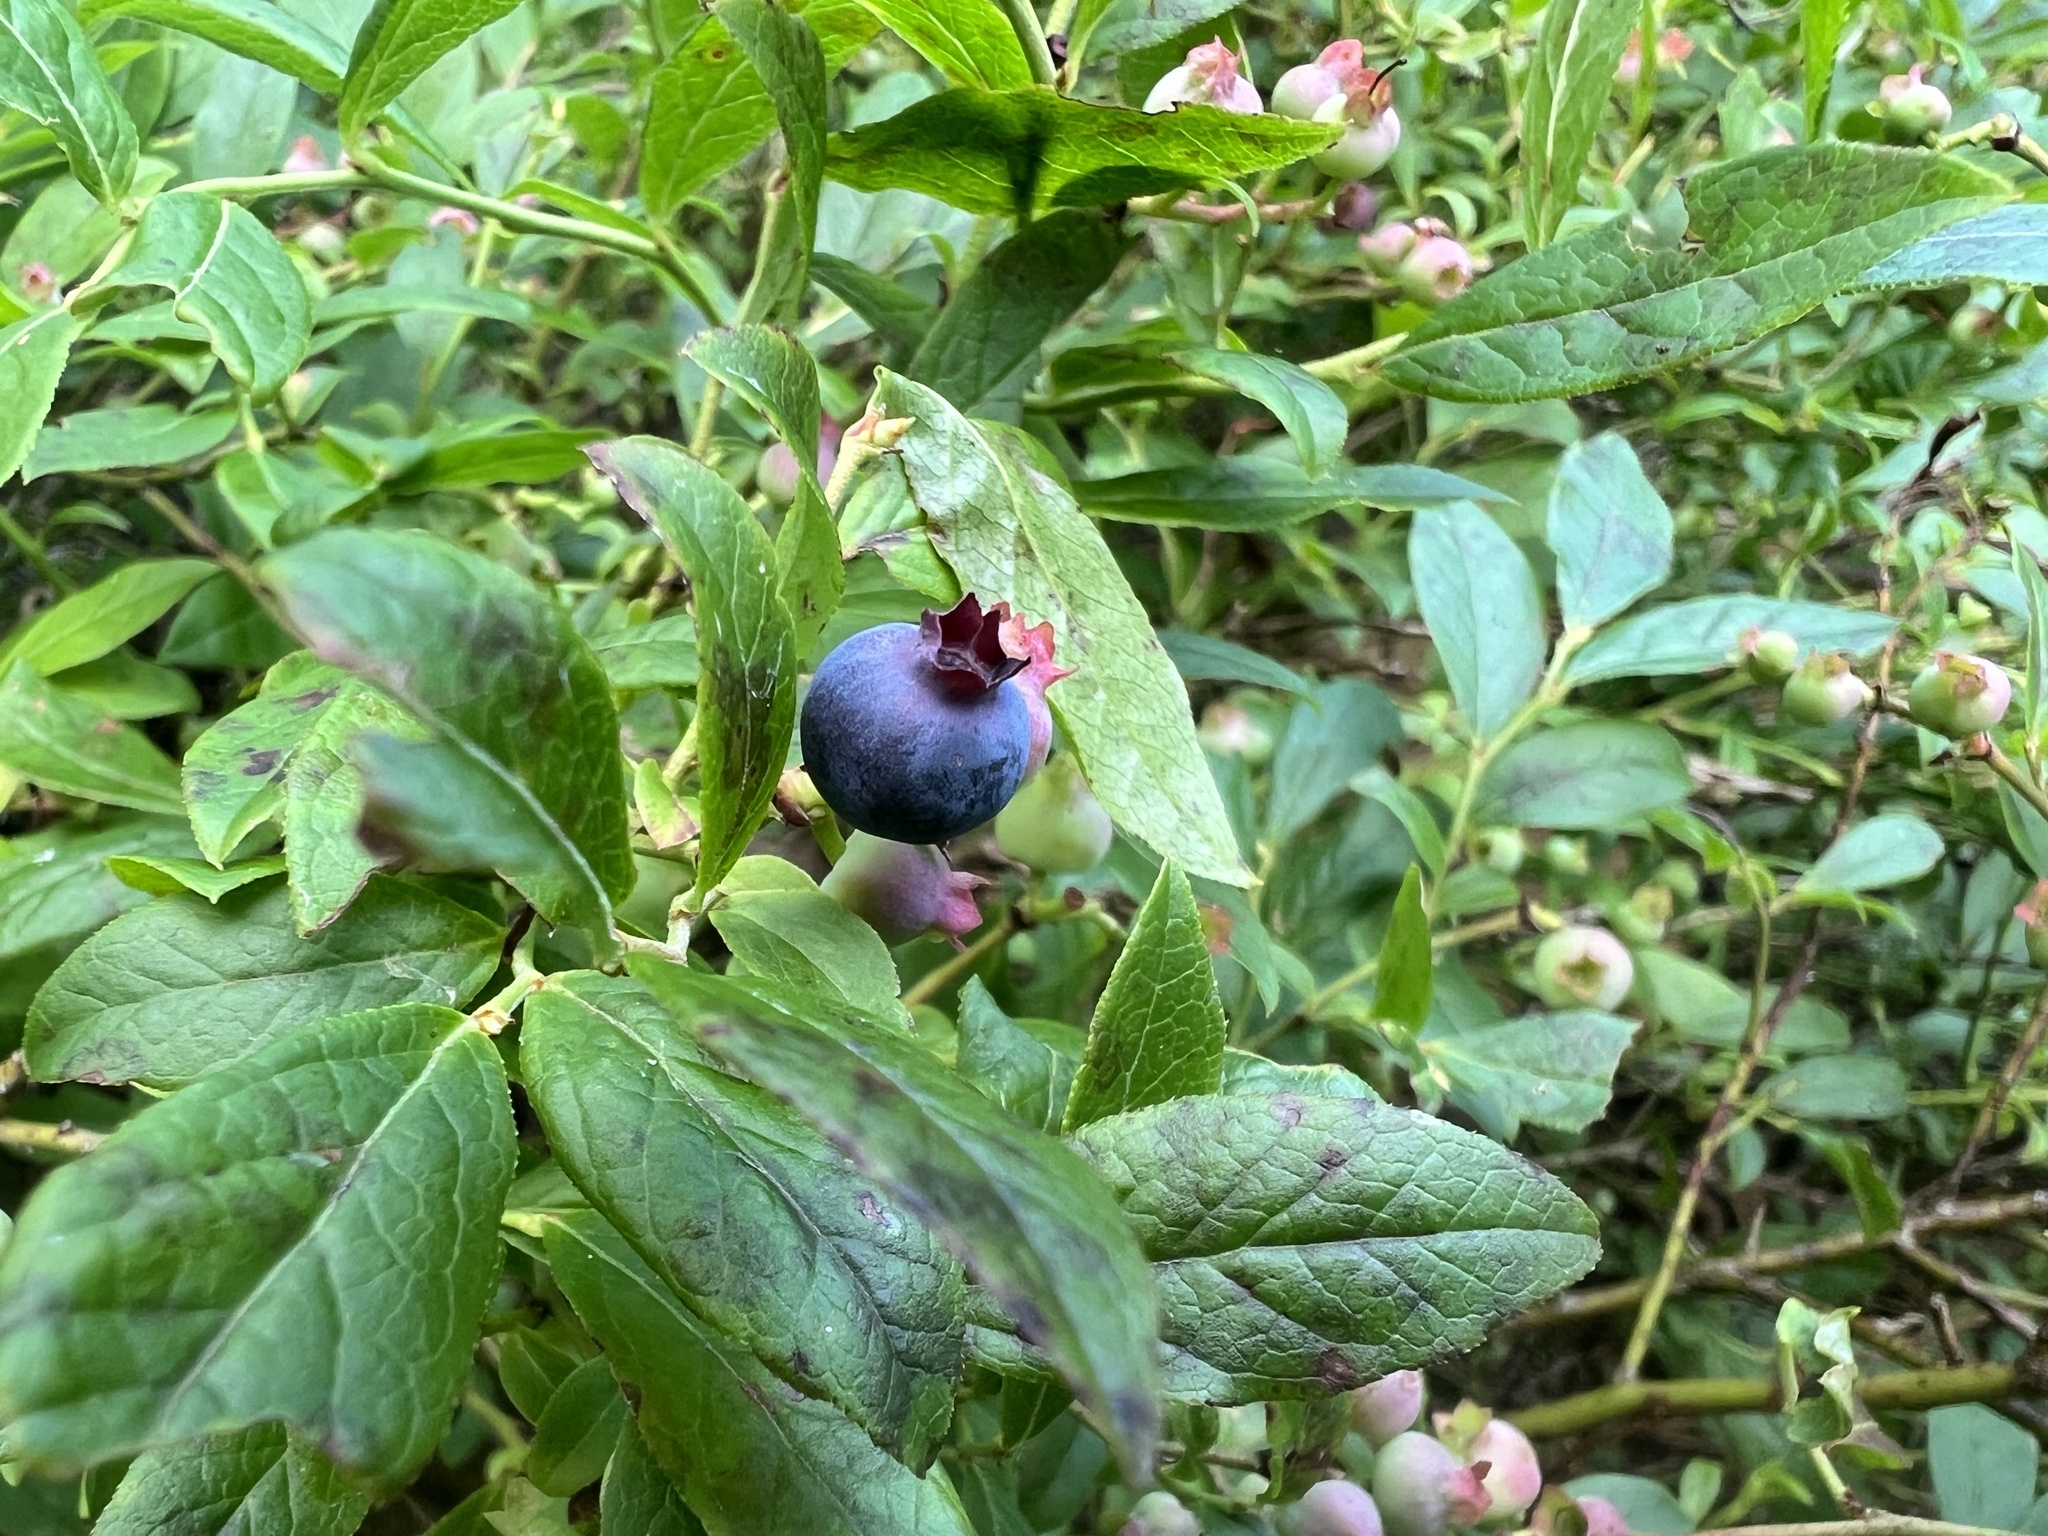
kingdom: Plantae
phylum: Tracheophyta
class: Magnoliopsida
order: Ericales
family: Ericaceae
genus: Vaccinium
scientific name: Vaccinium angustifolium
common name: Early lowbush blueberry
